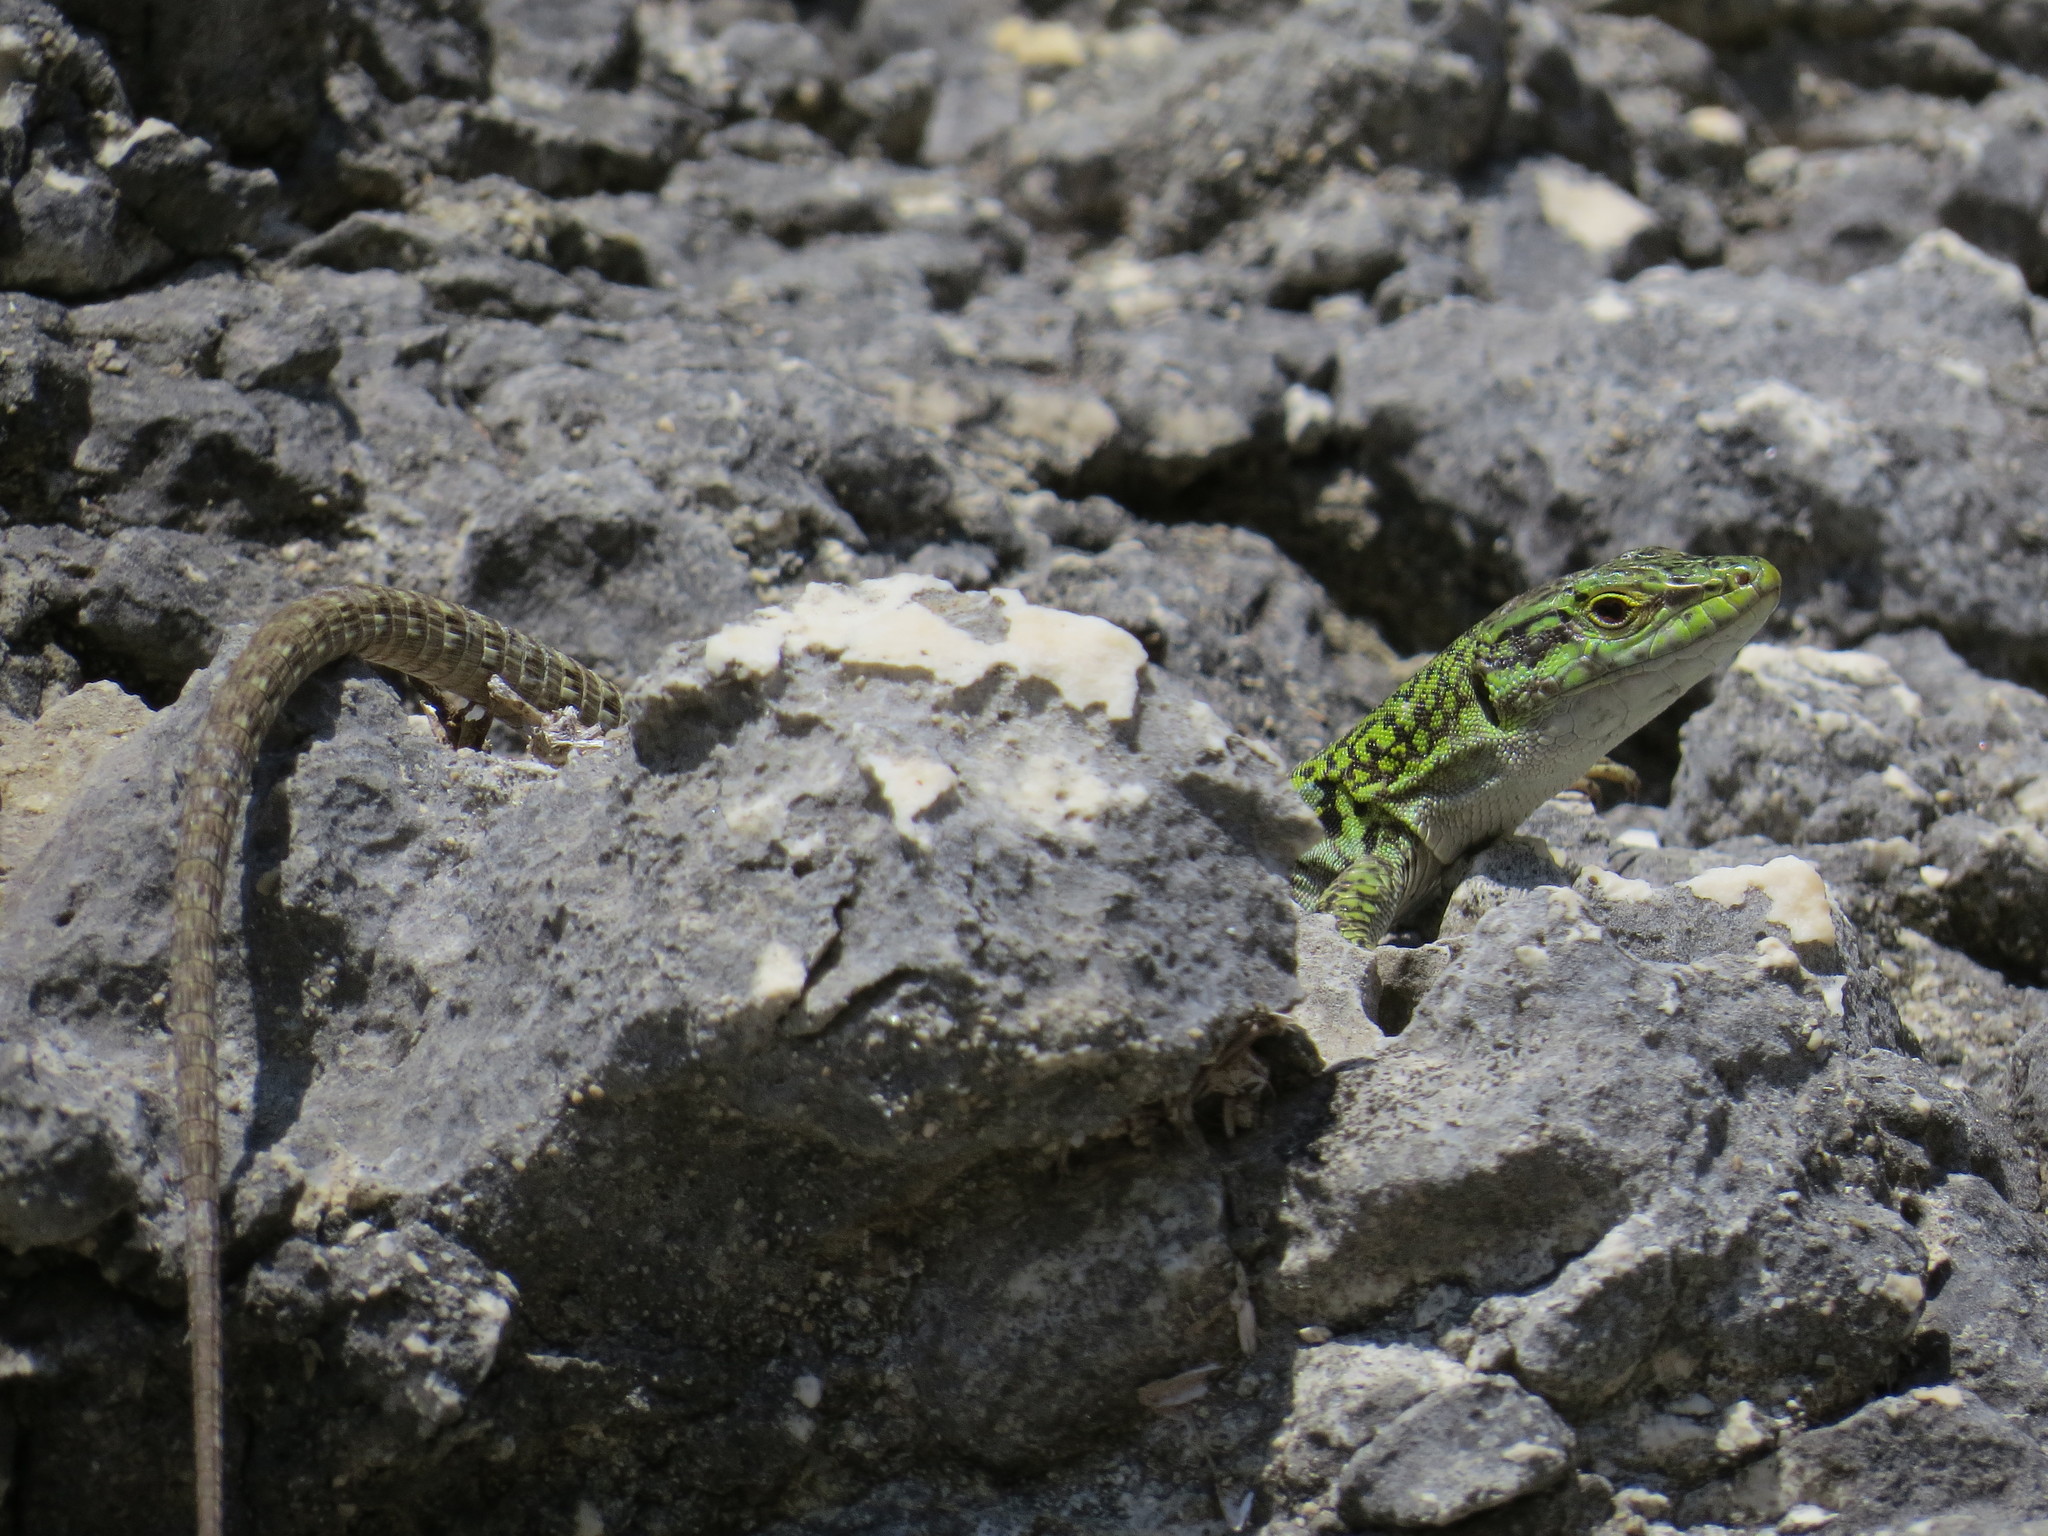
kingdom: Animalia
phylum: Chordata
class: Squamata
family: Lacertidae
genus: Podarcis
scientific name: Podarcis siculus
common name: Italian wall lizard
